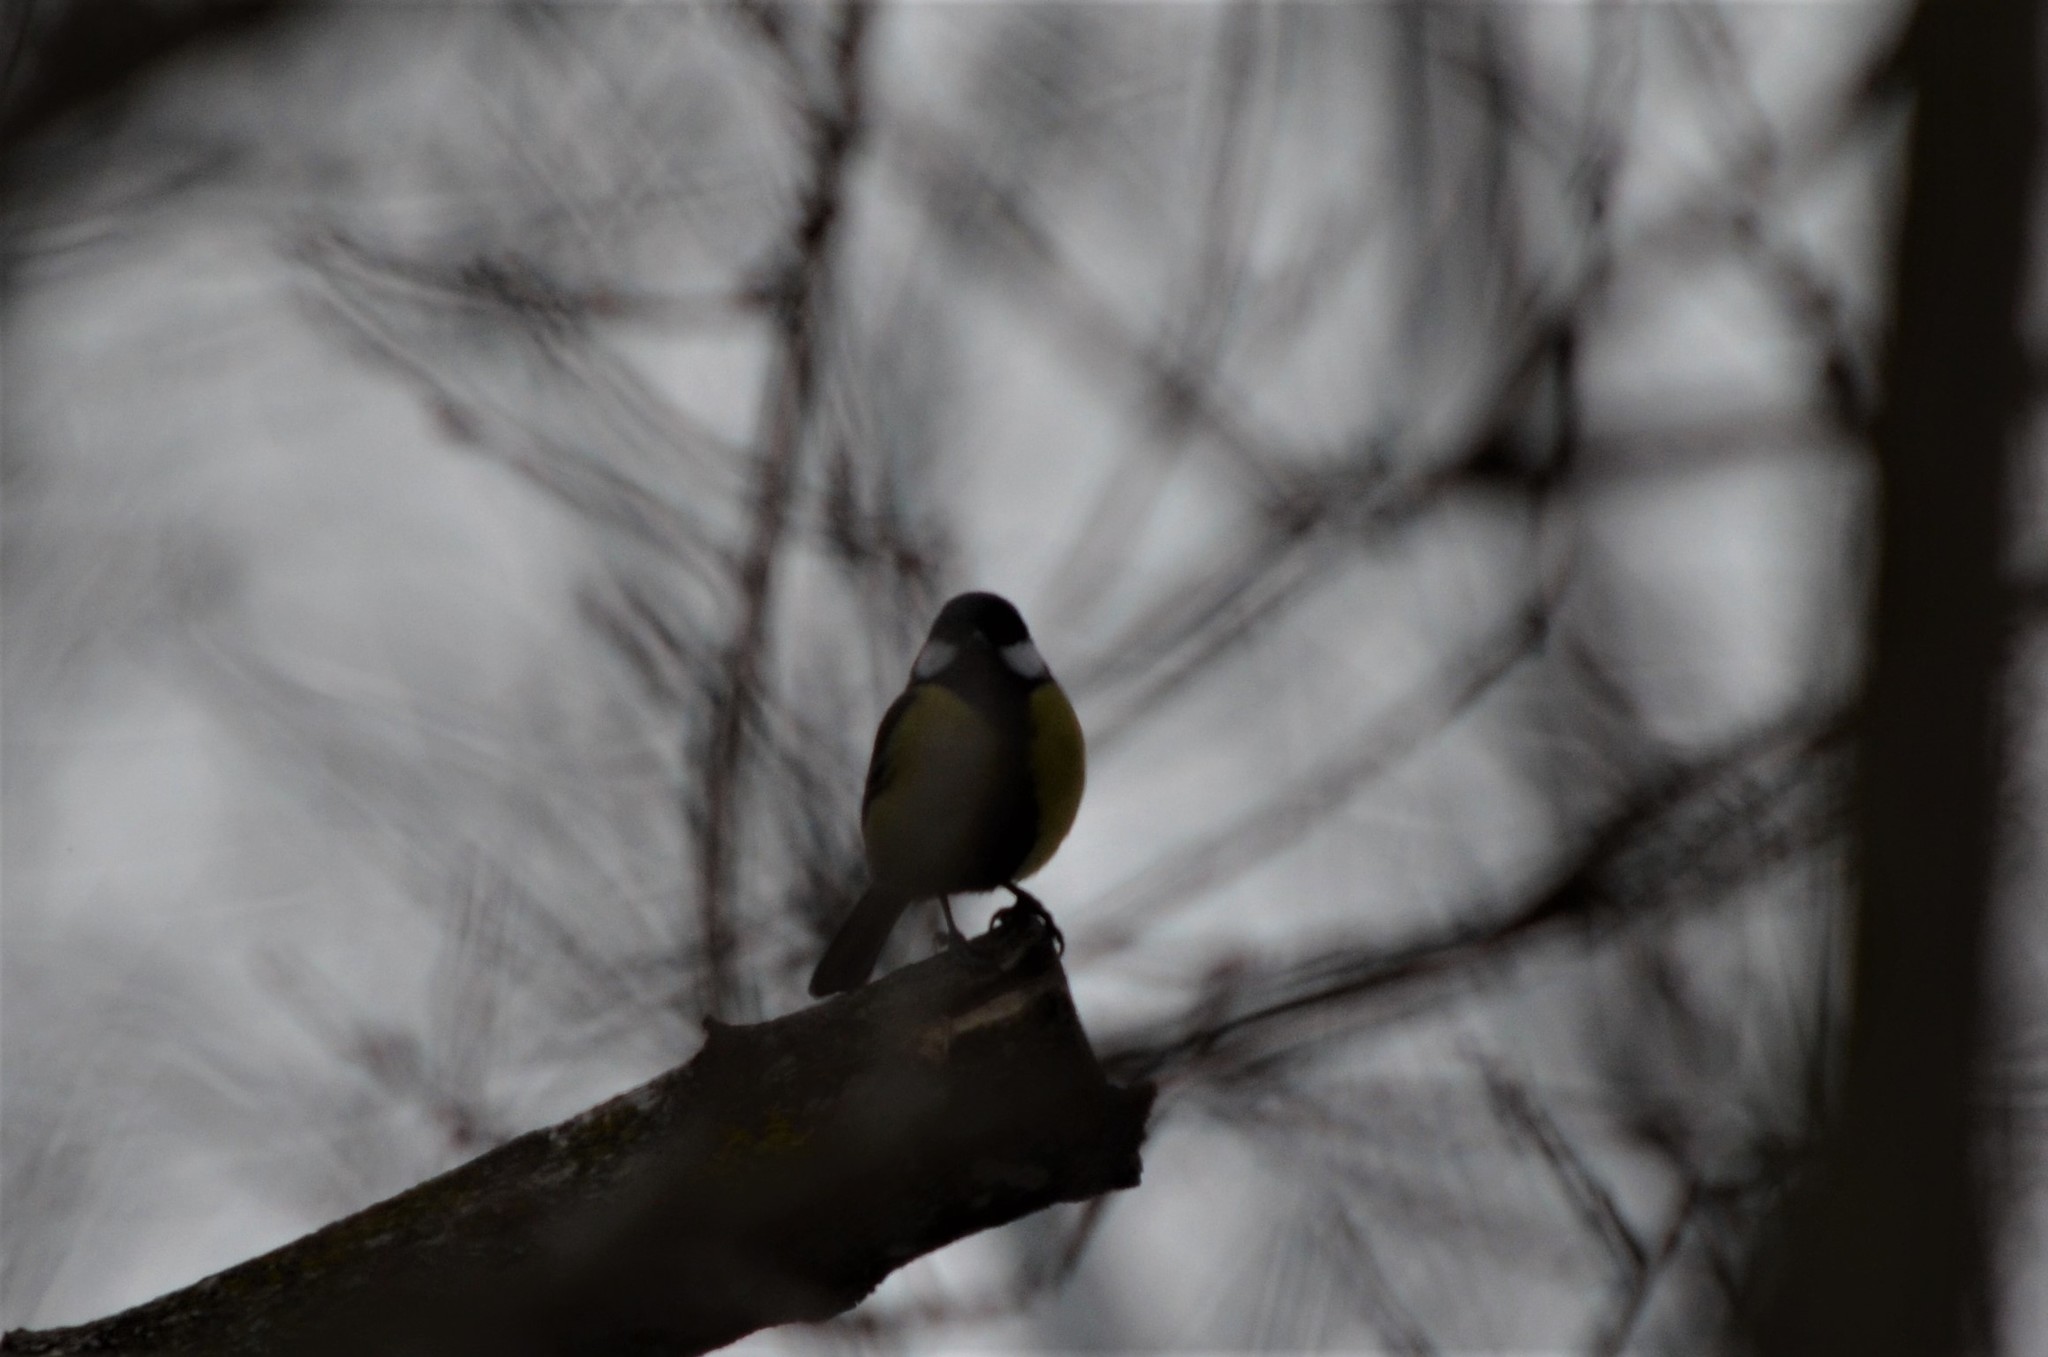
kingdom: Animalia
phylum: Chordata
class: Aves
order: Passeriformes
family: Paridae
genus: Parus
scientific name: Parus major
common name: Great tit
